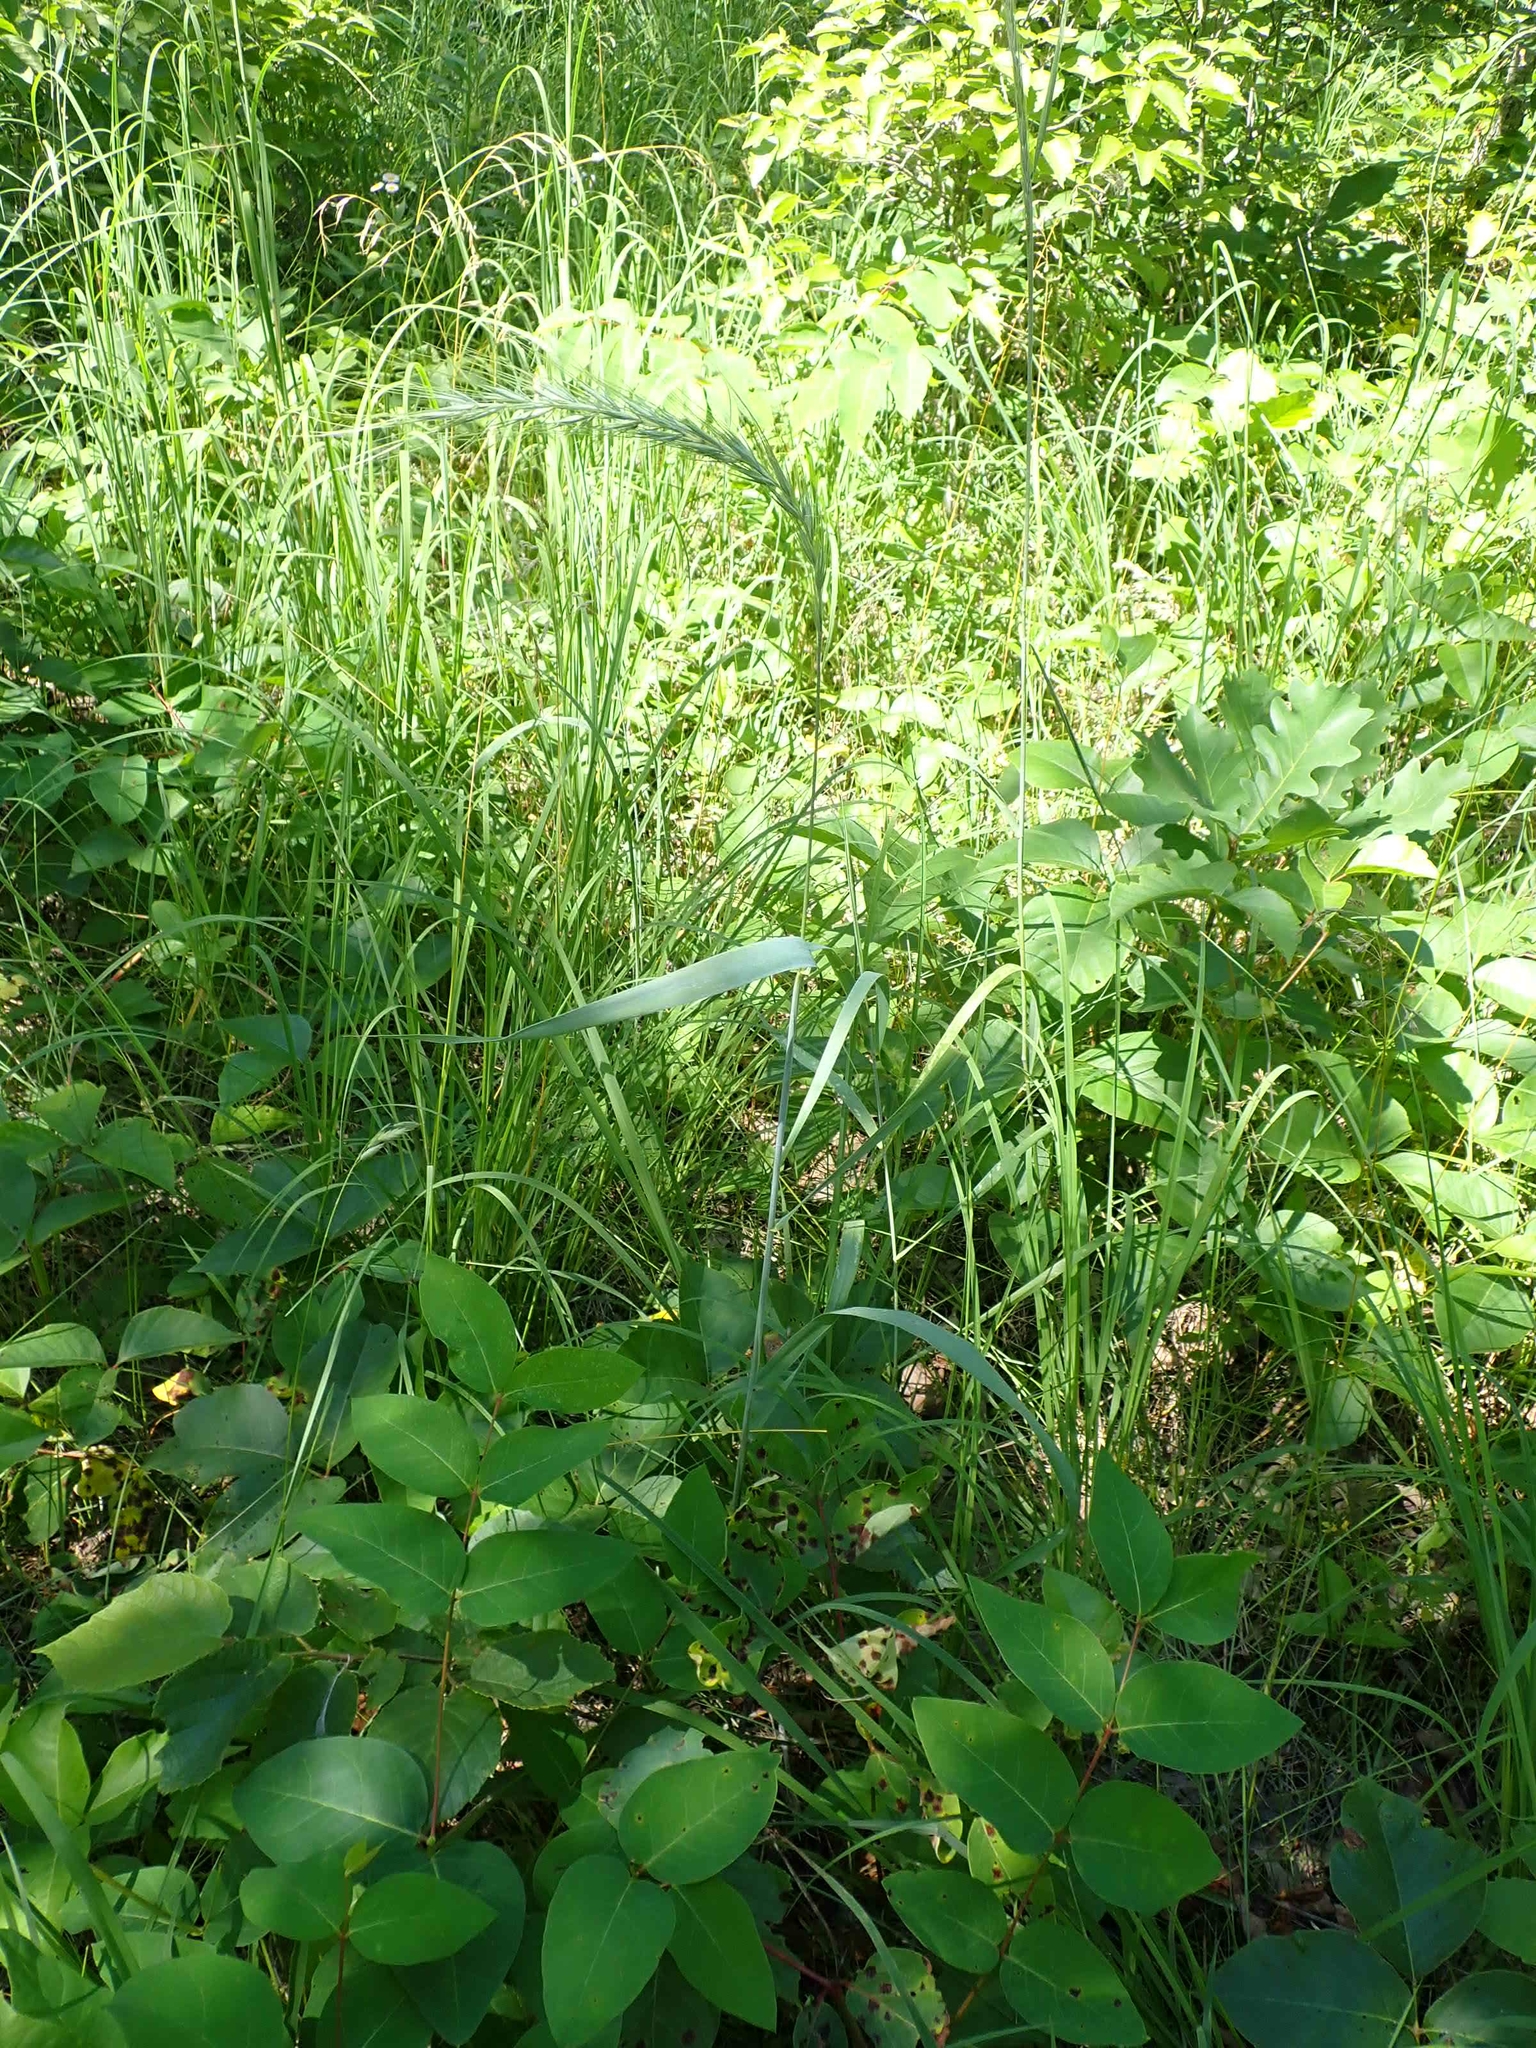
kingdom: Plantae
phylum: Tracheophyta
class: Liliopsida
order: Poales
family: Poaceae
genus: Elymus
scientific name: Elymus canadensis
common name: Canada wild rye
